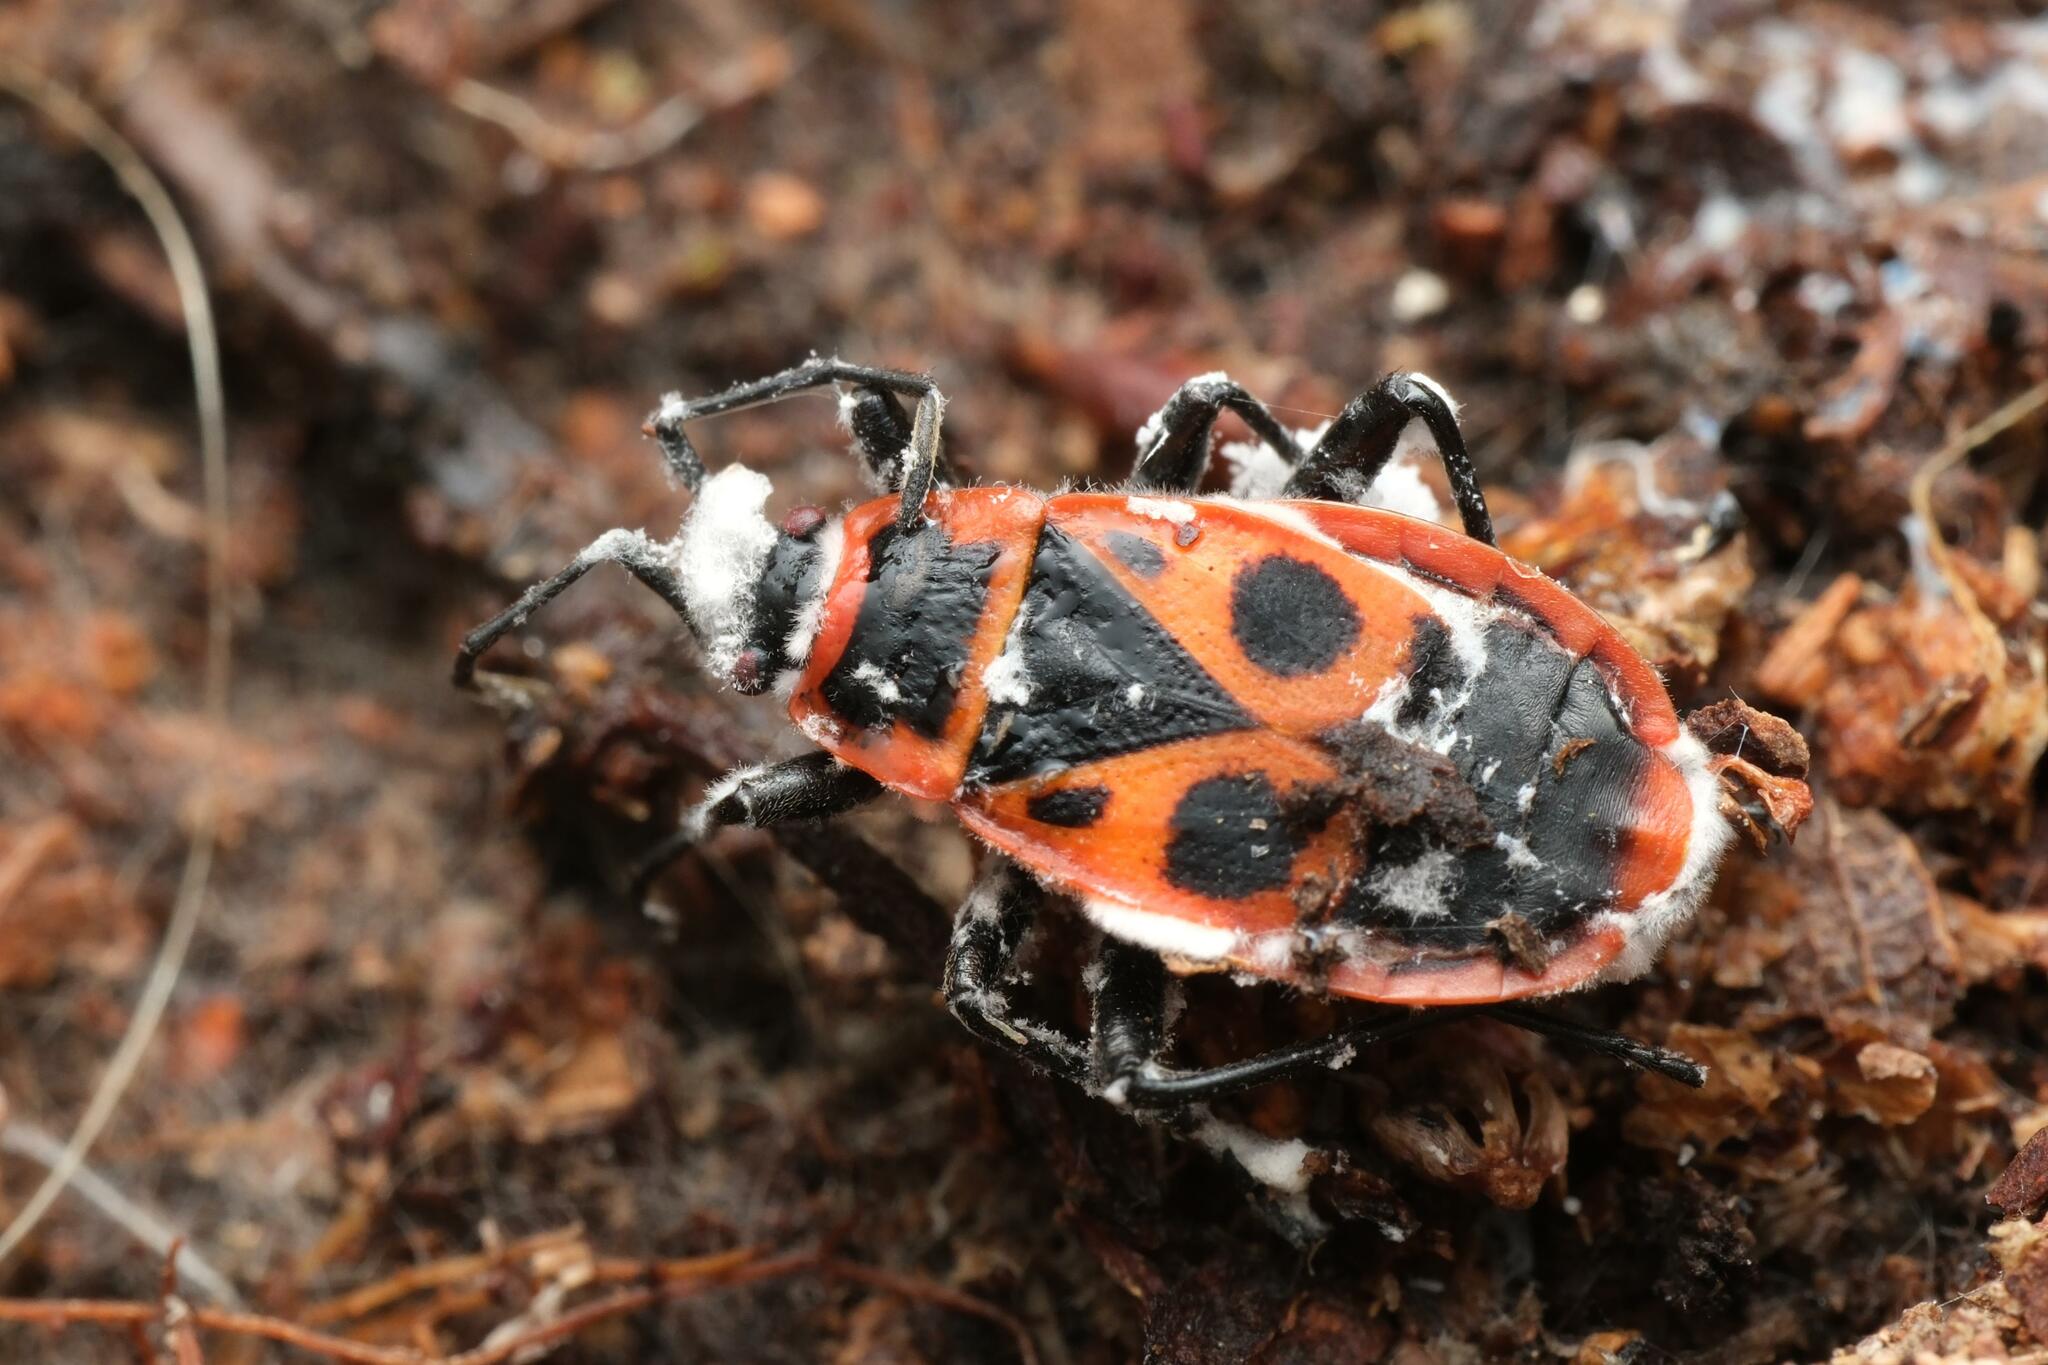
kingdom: Animalia
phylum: Arthropoda
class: Insecta
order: Hemiptera
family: Pyrrhocoridae
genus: Pyrrhocoris
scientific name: Pyrrhocoris apterus
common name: Firebug
